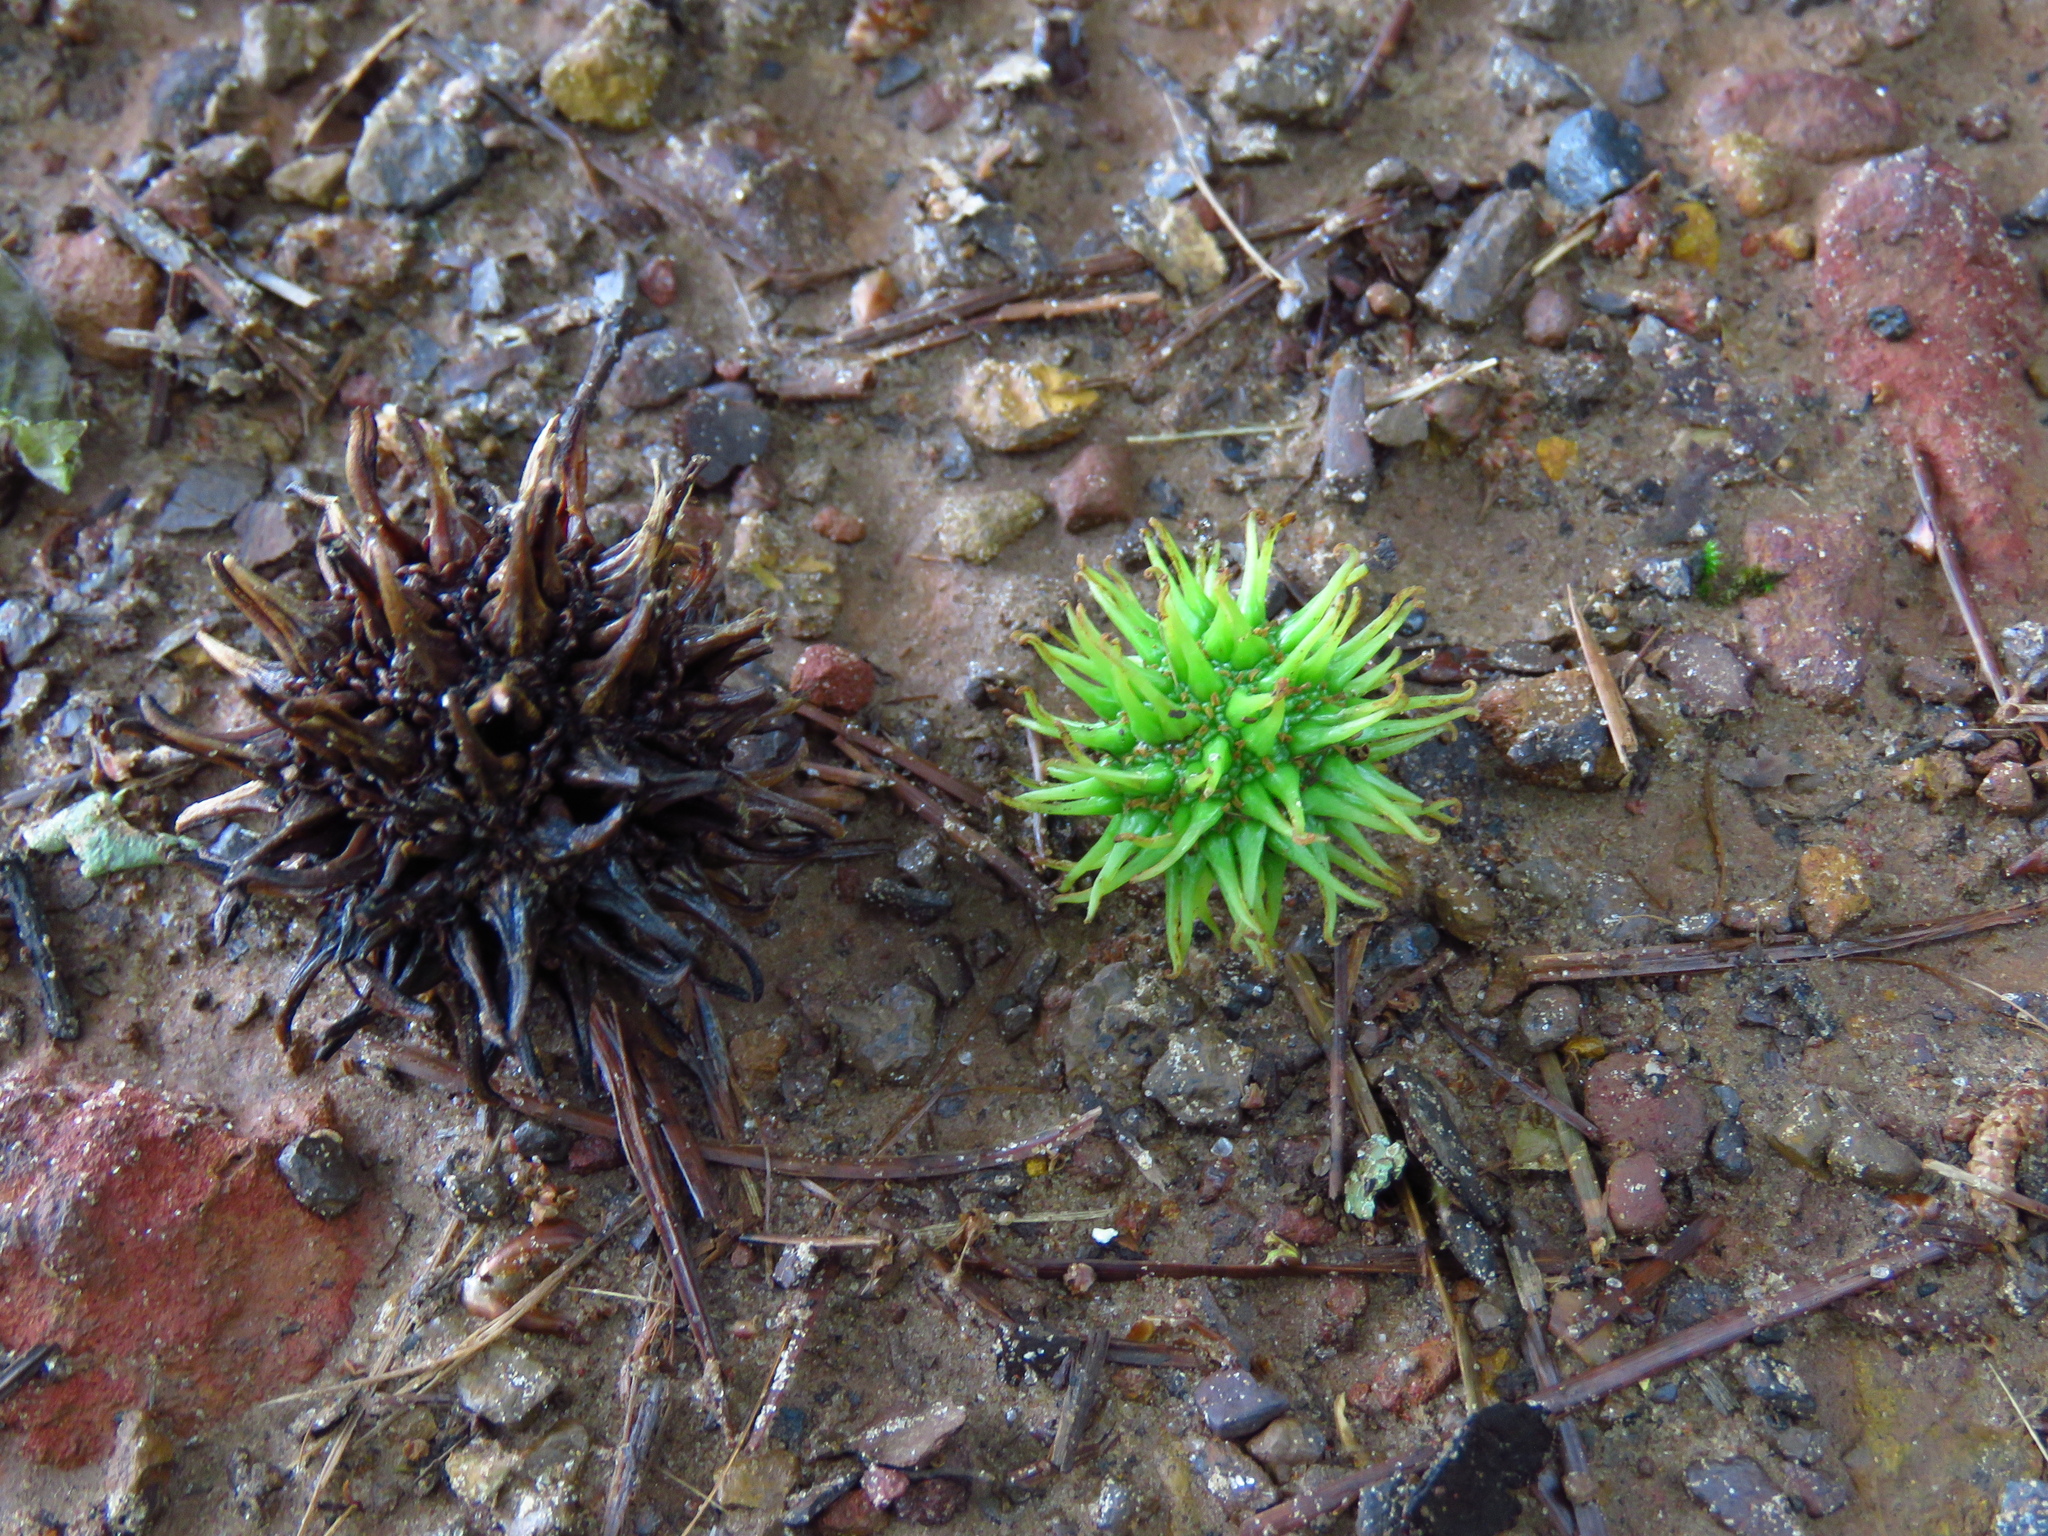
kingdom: Plantae
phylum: Tracheophyta
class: Magnoliopsida
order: Saxifragales
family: Altingiaceae
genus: Liquidambar
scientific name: Liquidambar styraciflua
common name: Sweet gum
